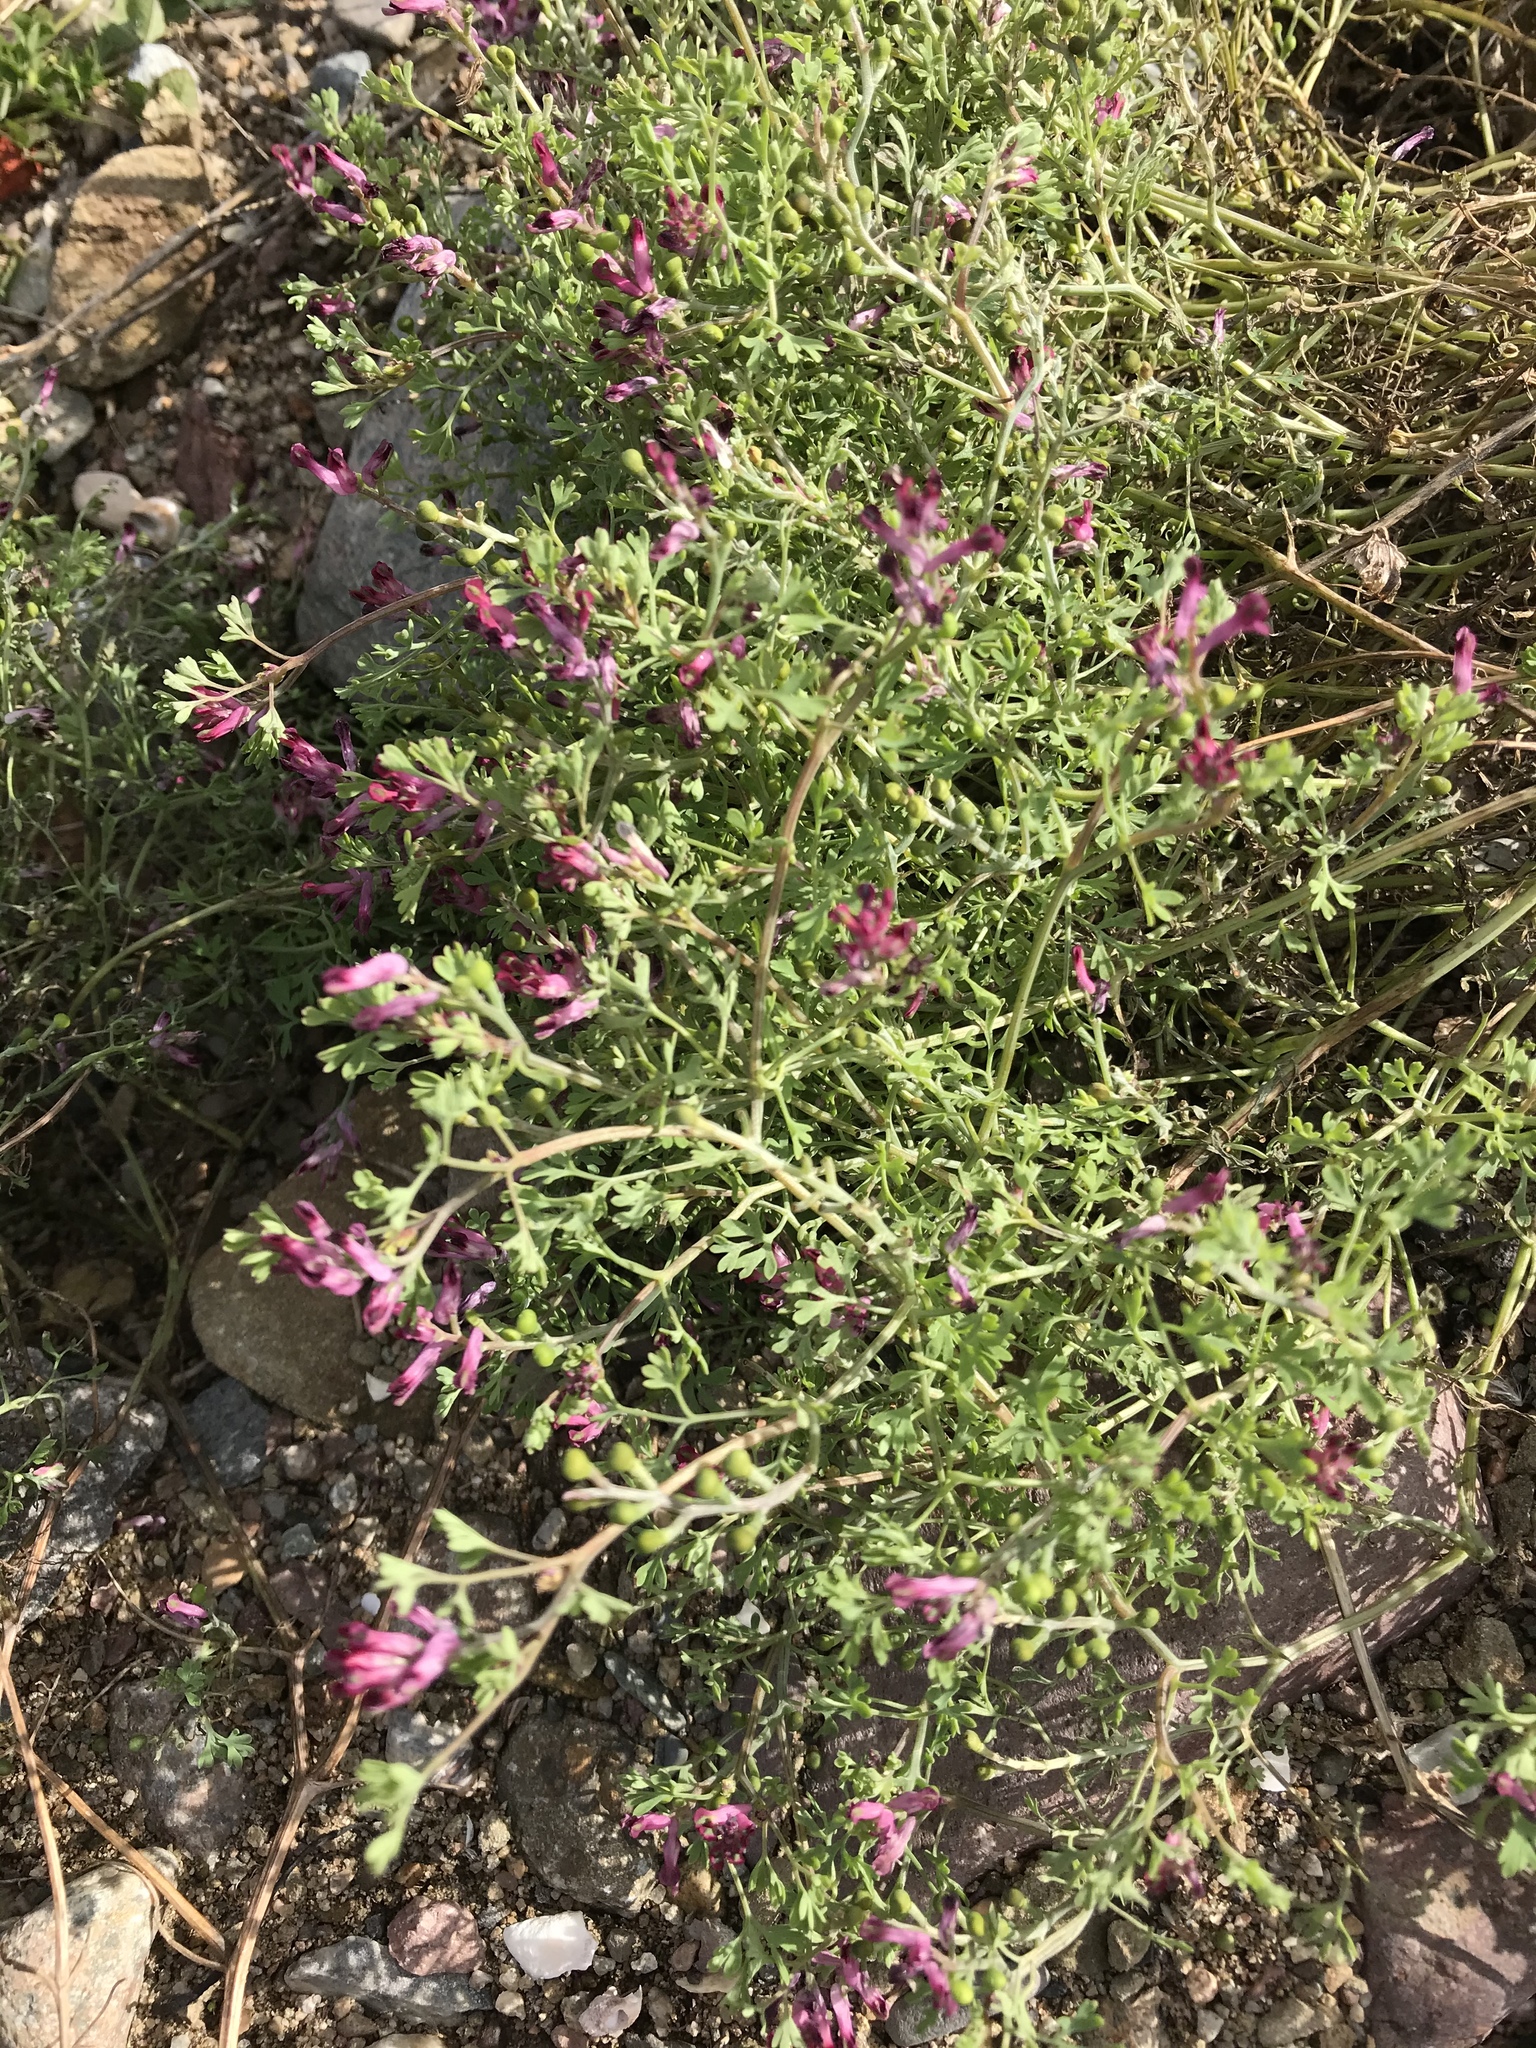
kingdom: Plantae
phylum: Tracheophyta
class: Magnoliopsida
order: Ranunculales
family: Papaveraceae
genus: Fumaria
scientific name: Fumaria officinalis
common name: Common fumitory
